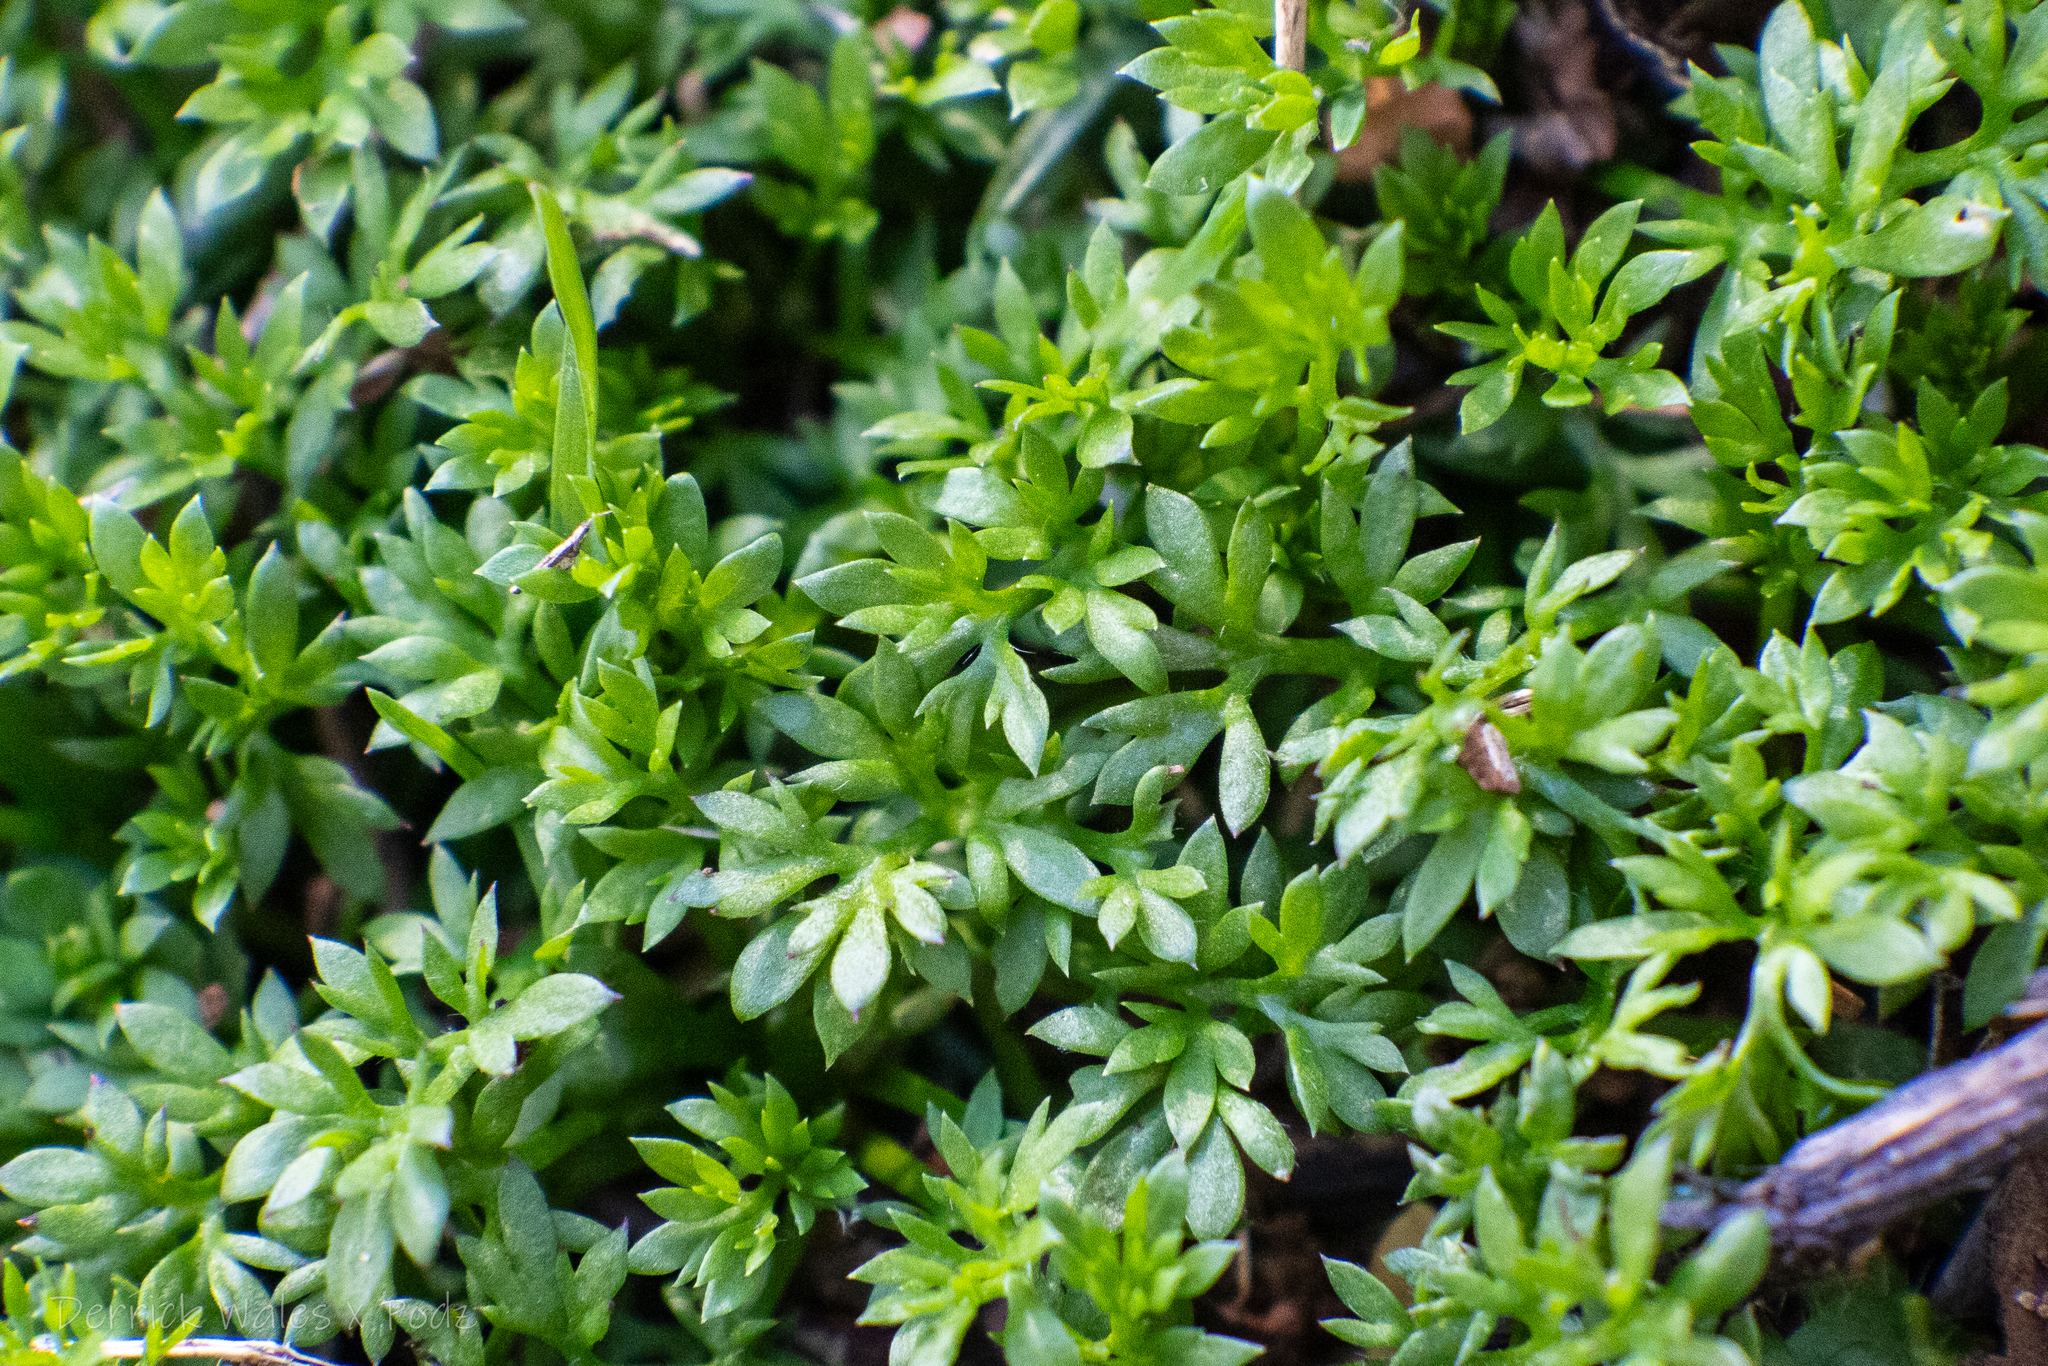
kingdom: Plantae
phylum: Tracheophyta
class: Magnoliopsida
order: Asterales
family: Asteraceae
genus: Soliva
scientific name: Soliva sessilis
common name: Field burrweed
